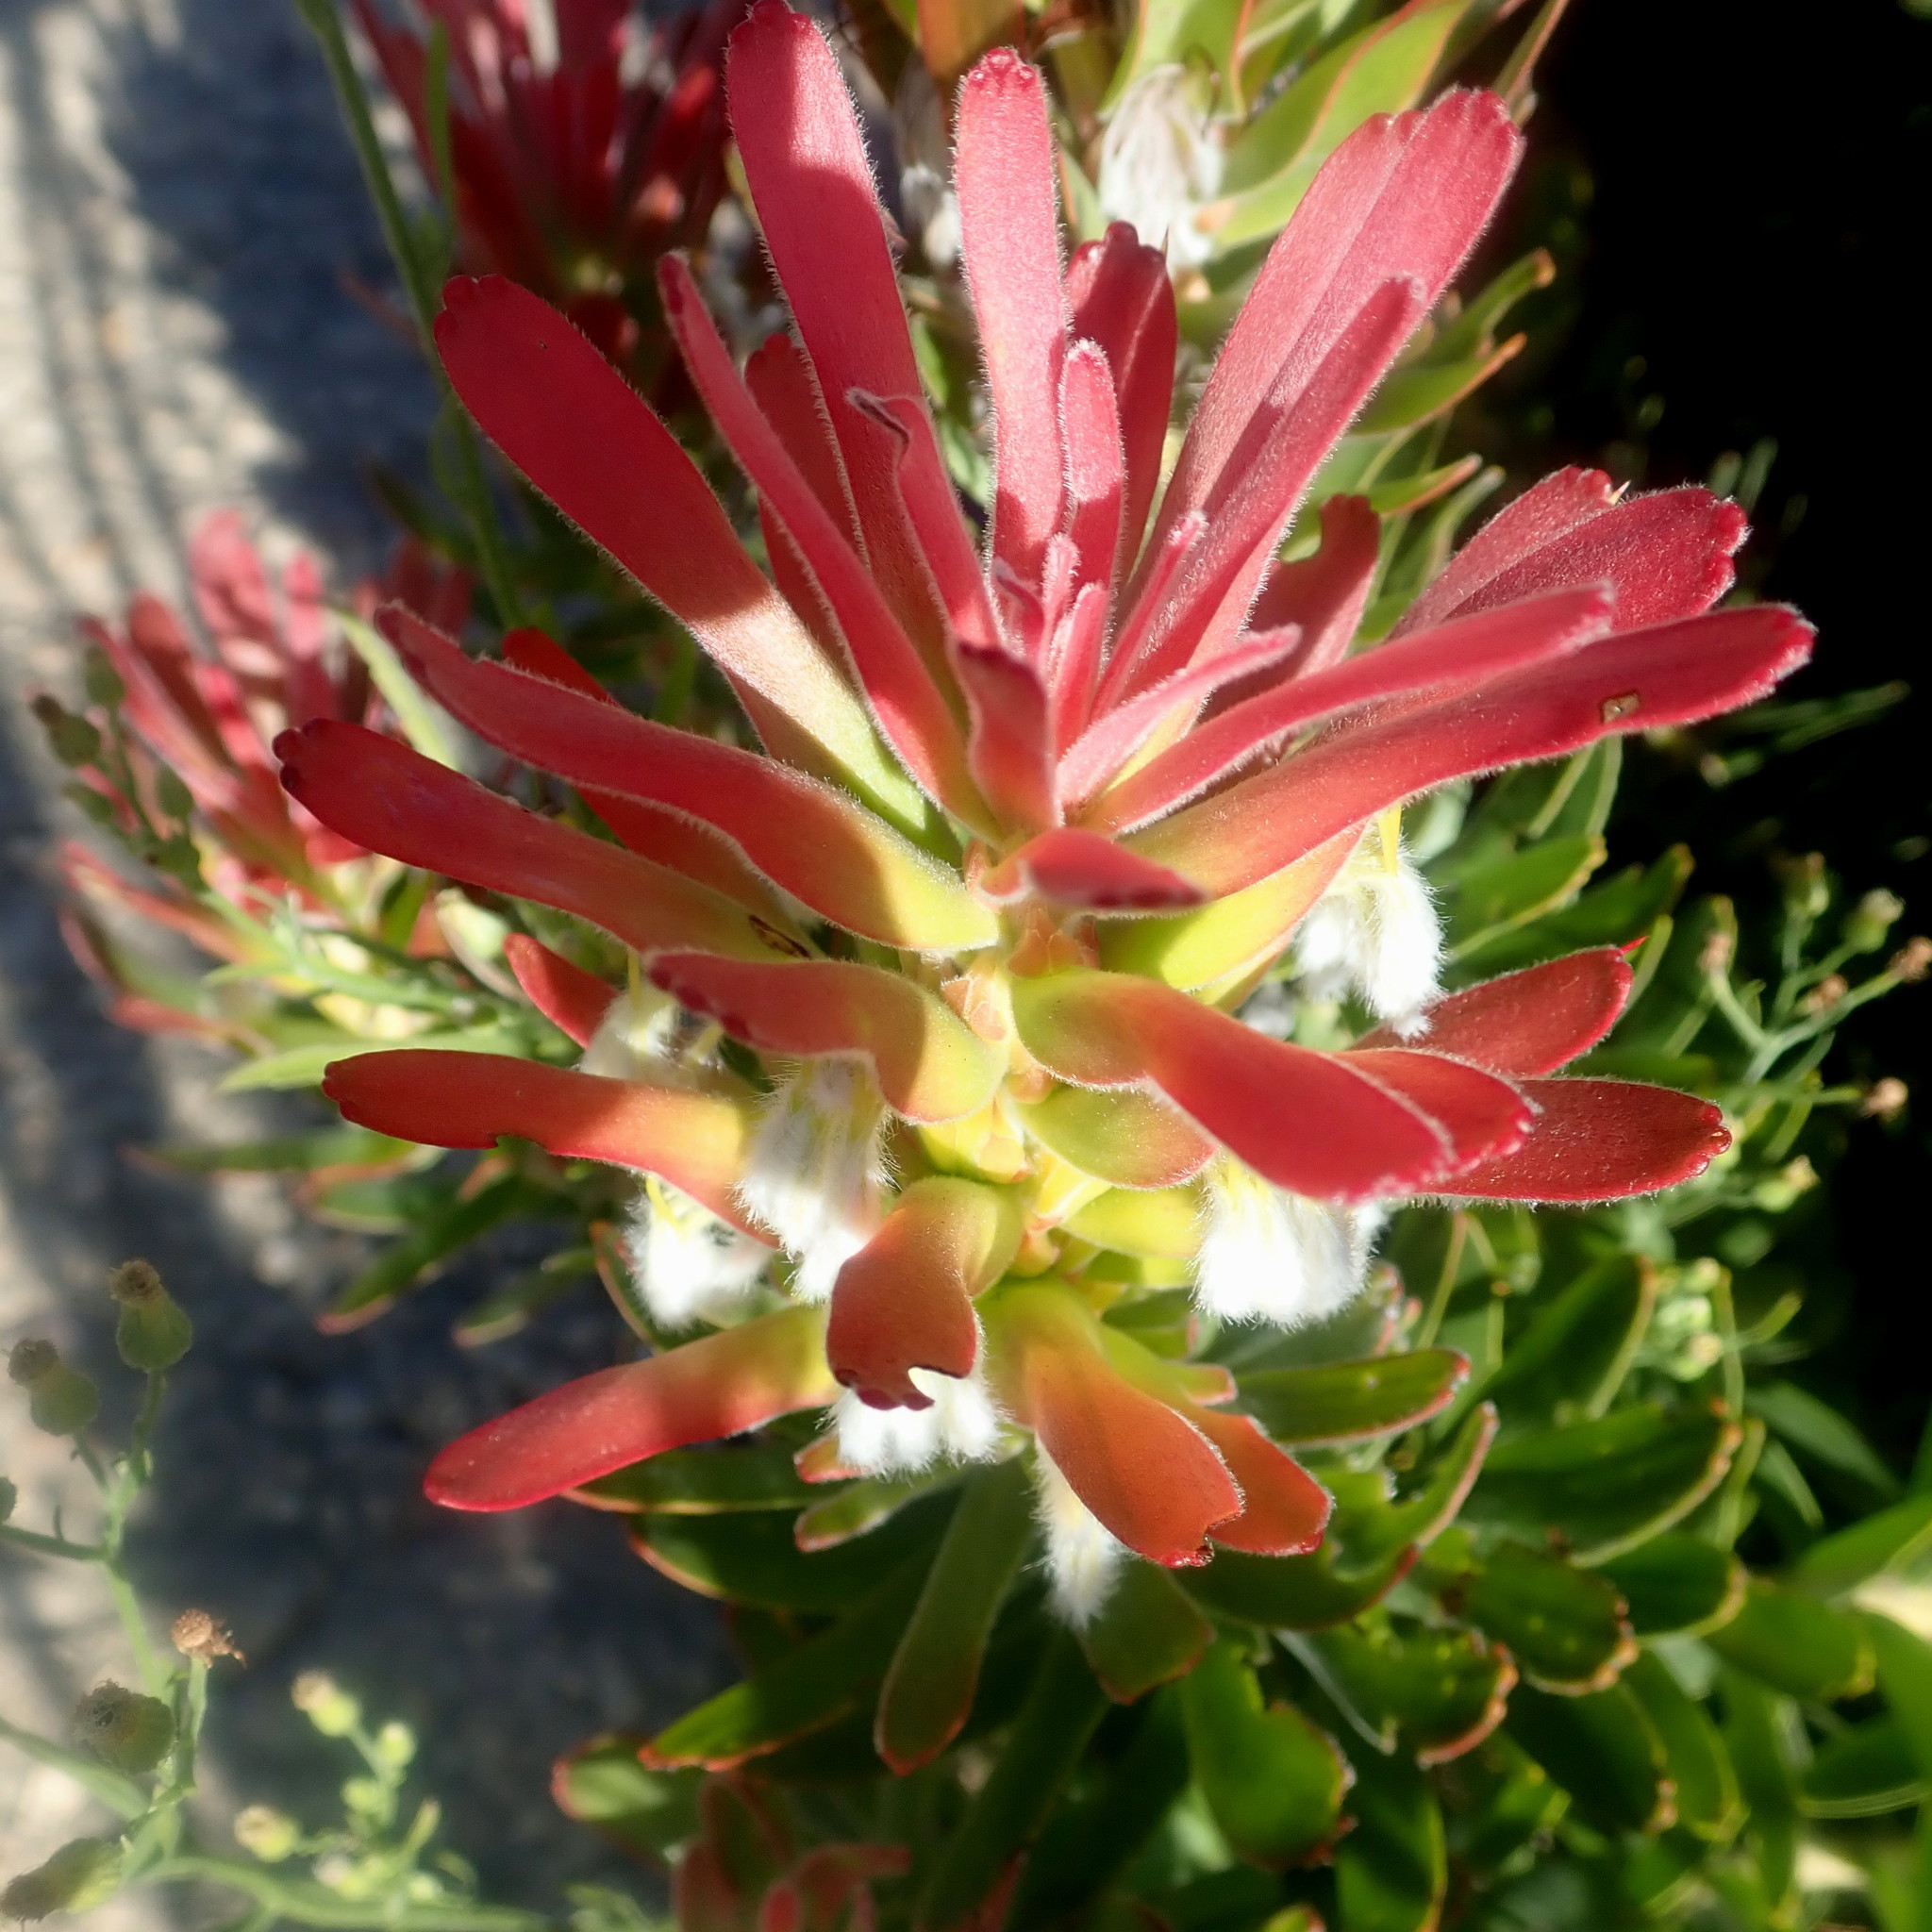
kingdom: Plantae
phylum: Tracheophyta
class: Magnoliopsida
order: Proteales
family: Proteaceae
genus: Mimetes
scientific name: Mimetes cucullatus
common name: Common pagoda
